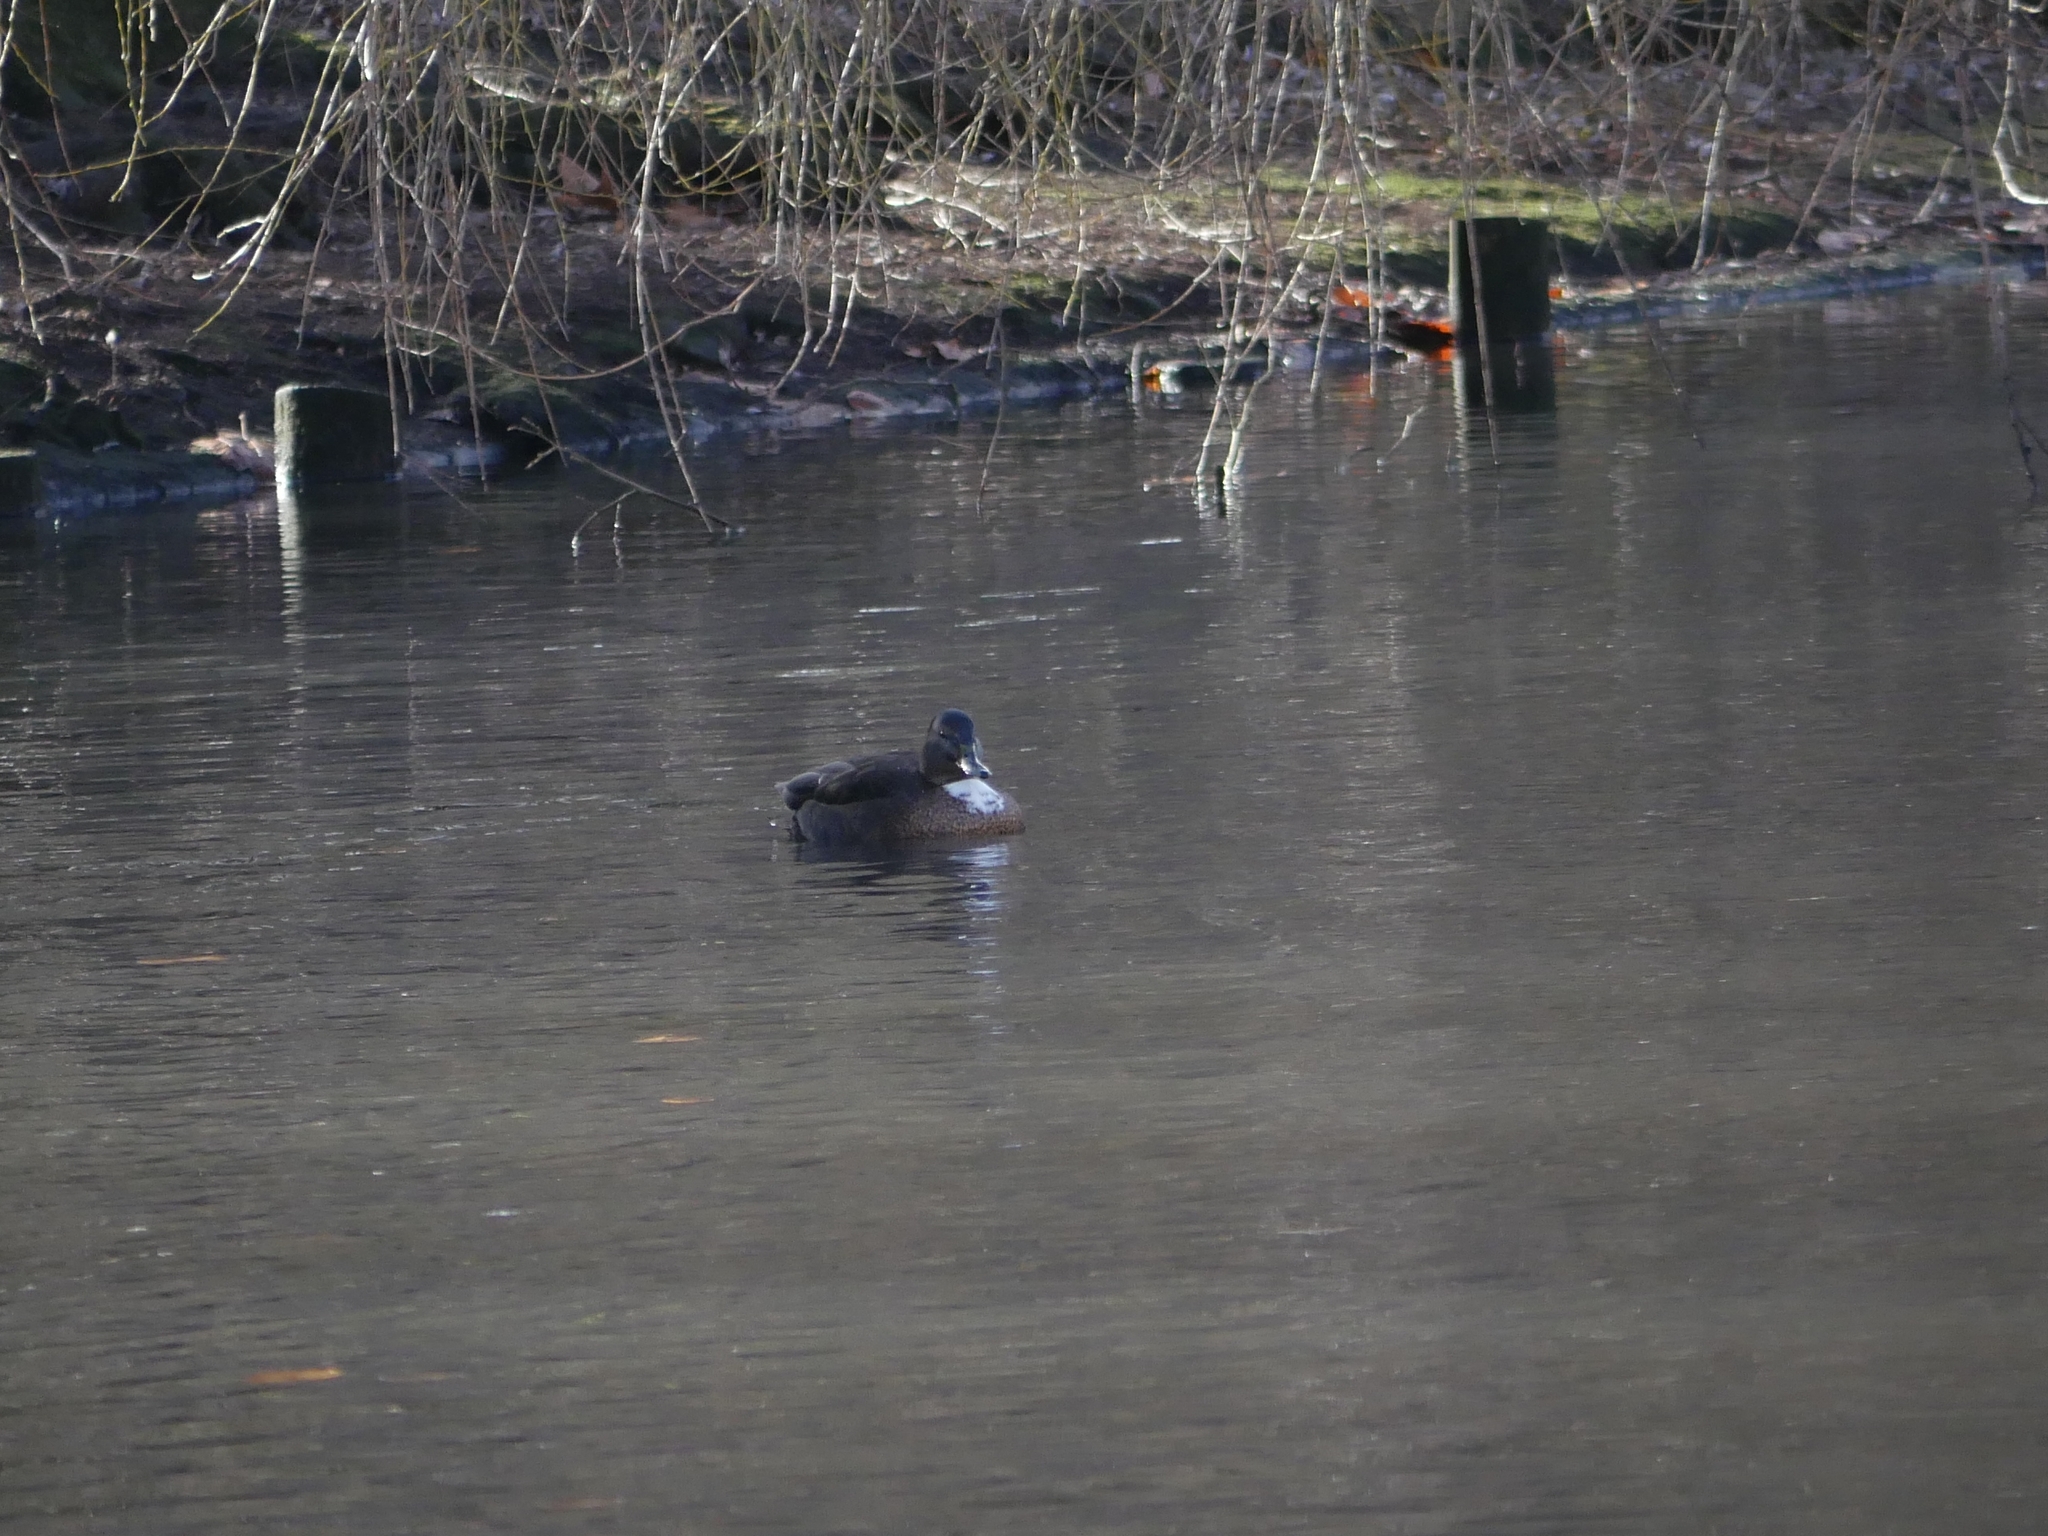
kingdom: Animalia
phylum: Chordata
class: Aves
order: Anseriformes
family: Anatidae
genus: Anas
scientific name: Anas platyrhynchos
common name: Mallard
